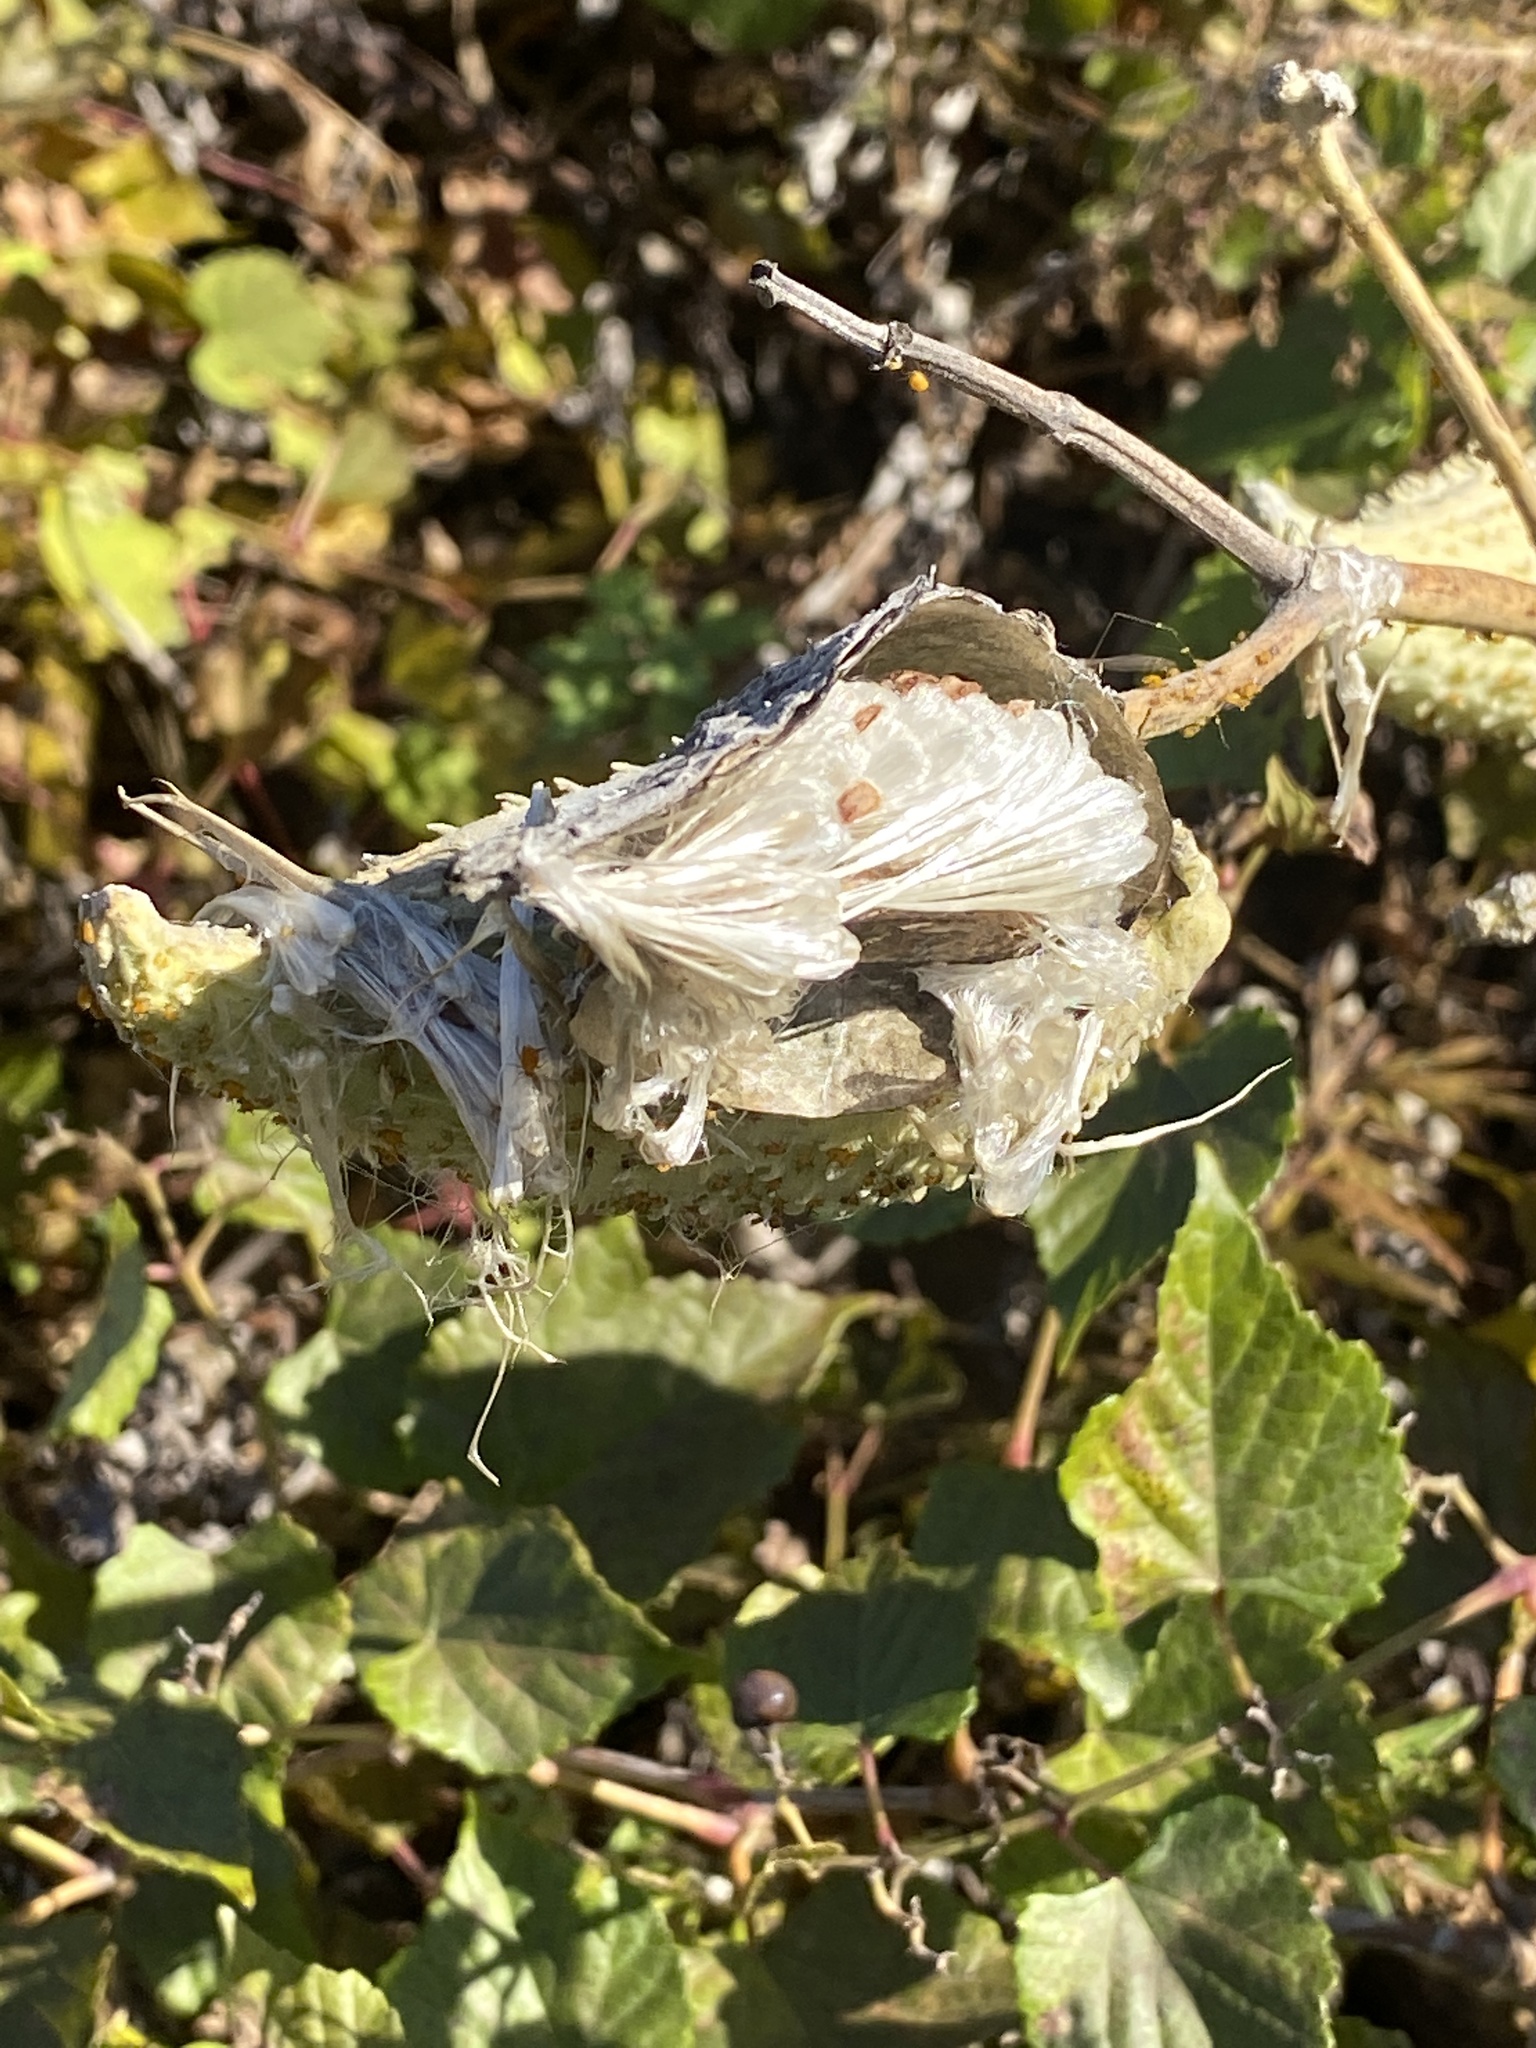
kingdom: Plantae
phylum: Tracheophyta
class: Magnoliopsida
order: Gentianales
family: Apocynaceae
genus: Asclepias
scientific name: Asclepias syriaca
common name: Common milkweed
